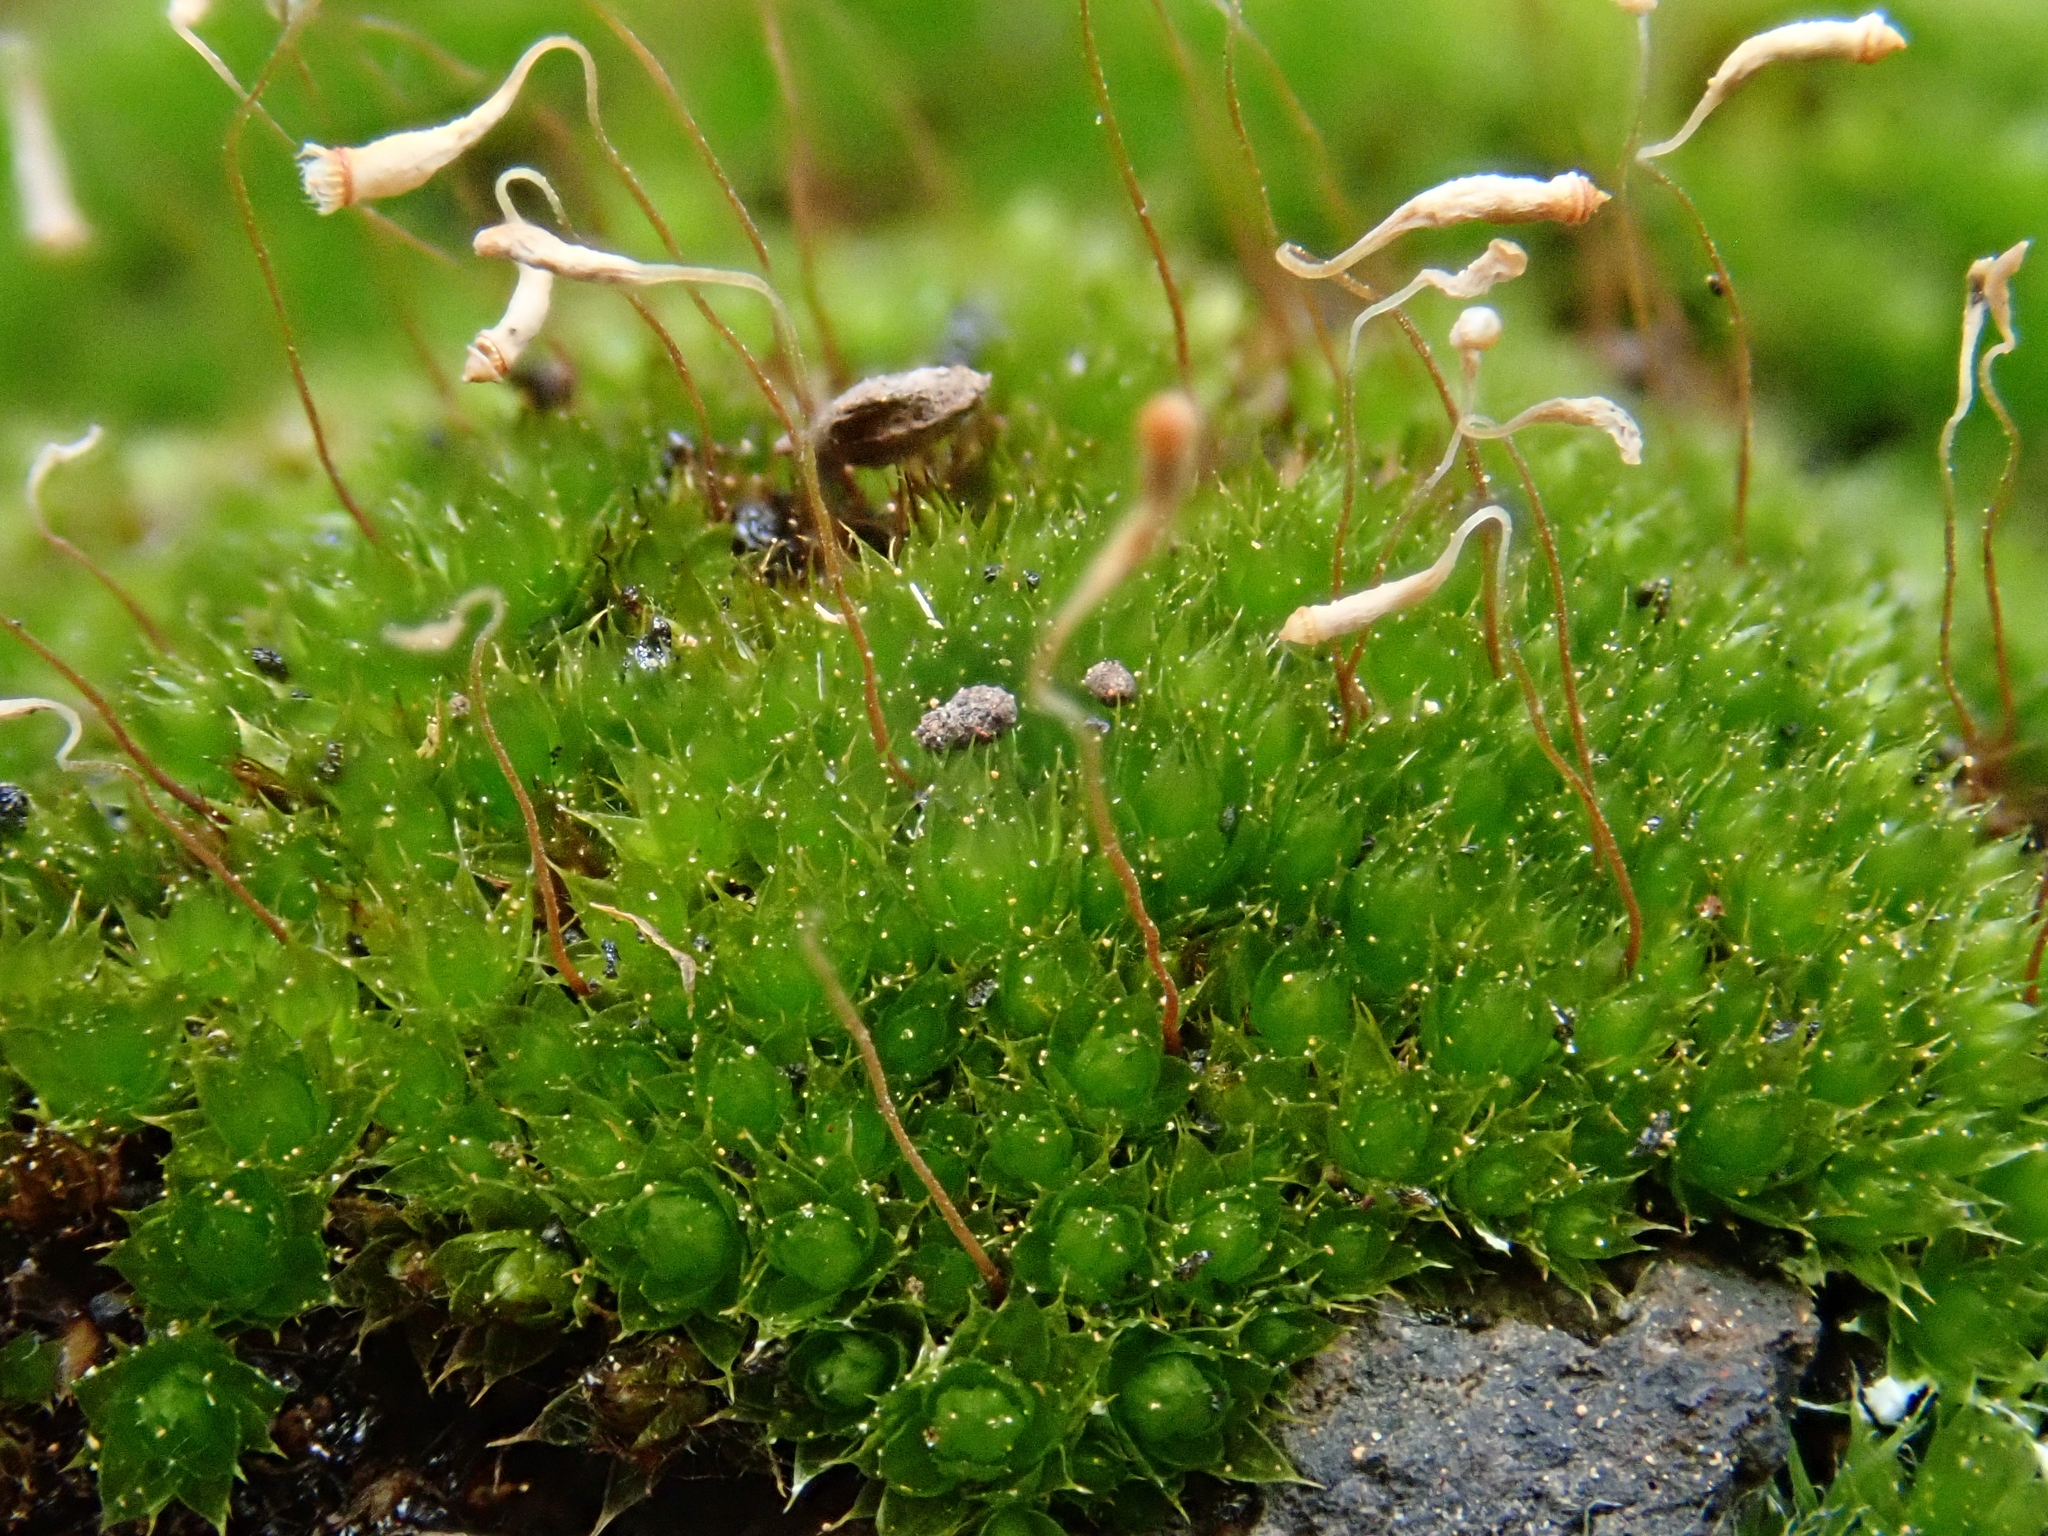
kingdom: Plantae
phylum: Bryophyta
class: Bryopsida
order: Bryales
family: Bryaceae
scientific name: Bryaceae
